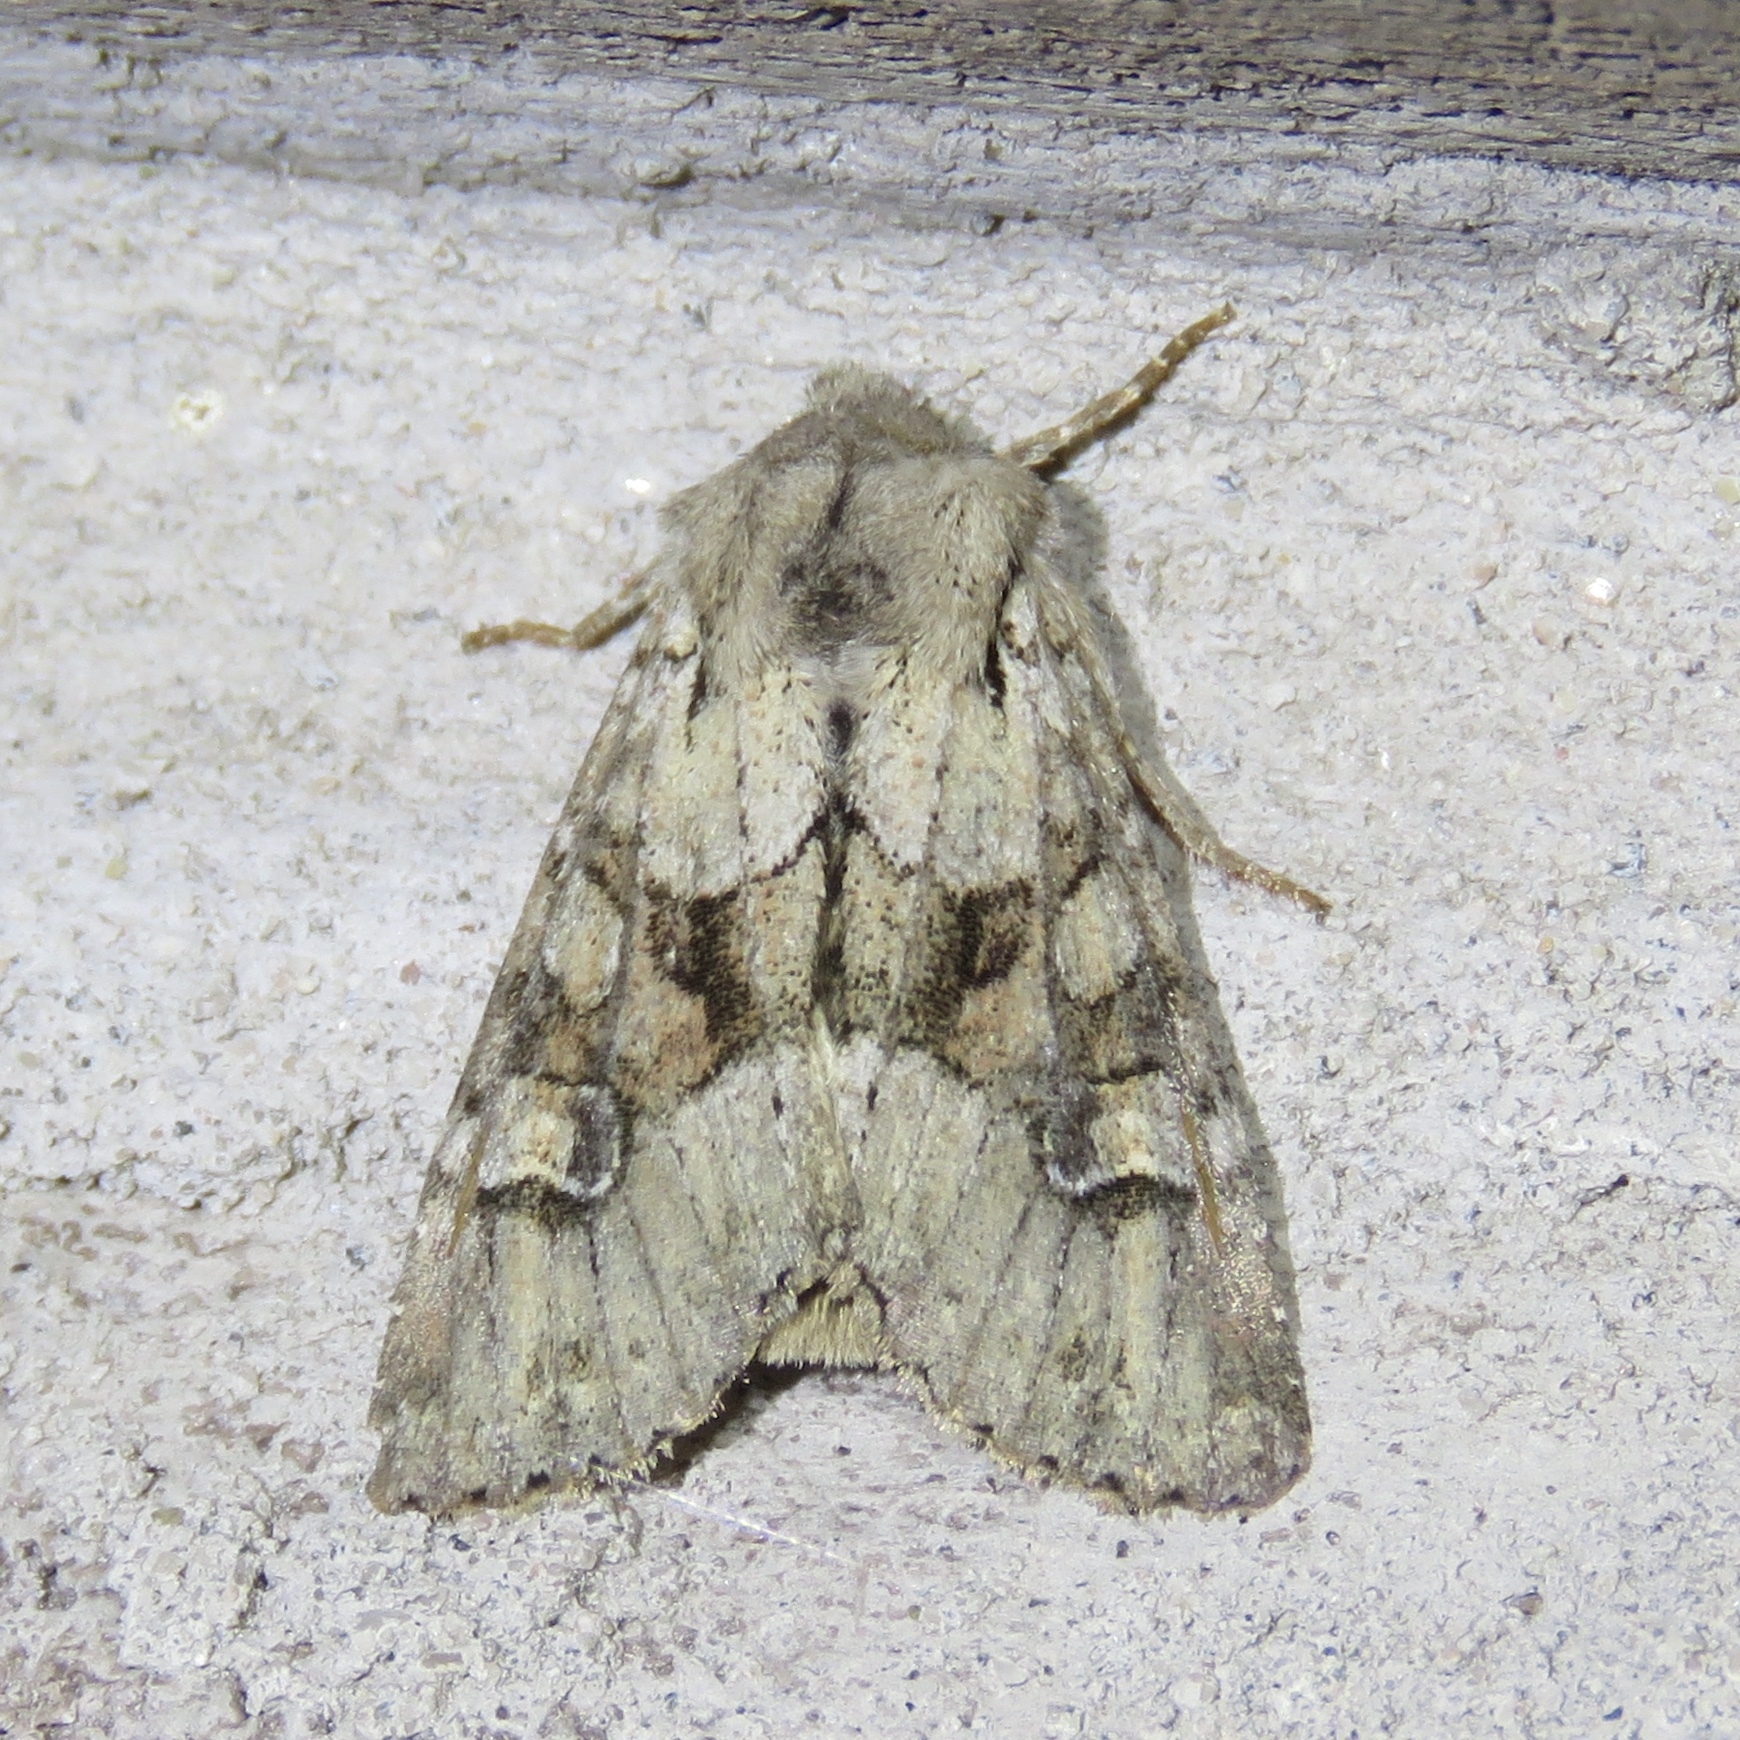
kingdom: Animalia
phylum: Arthropoda
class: Insecta
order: Lepidoptera
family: Noctuidae
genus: Apamea
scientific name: Apamea sordens
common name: Rustic shoulder-knot
